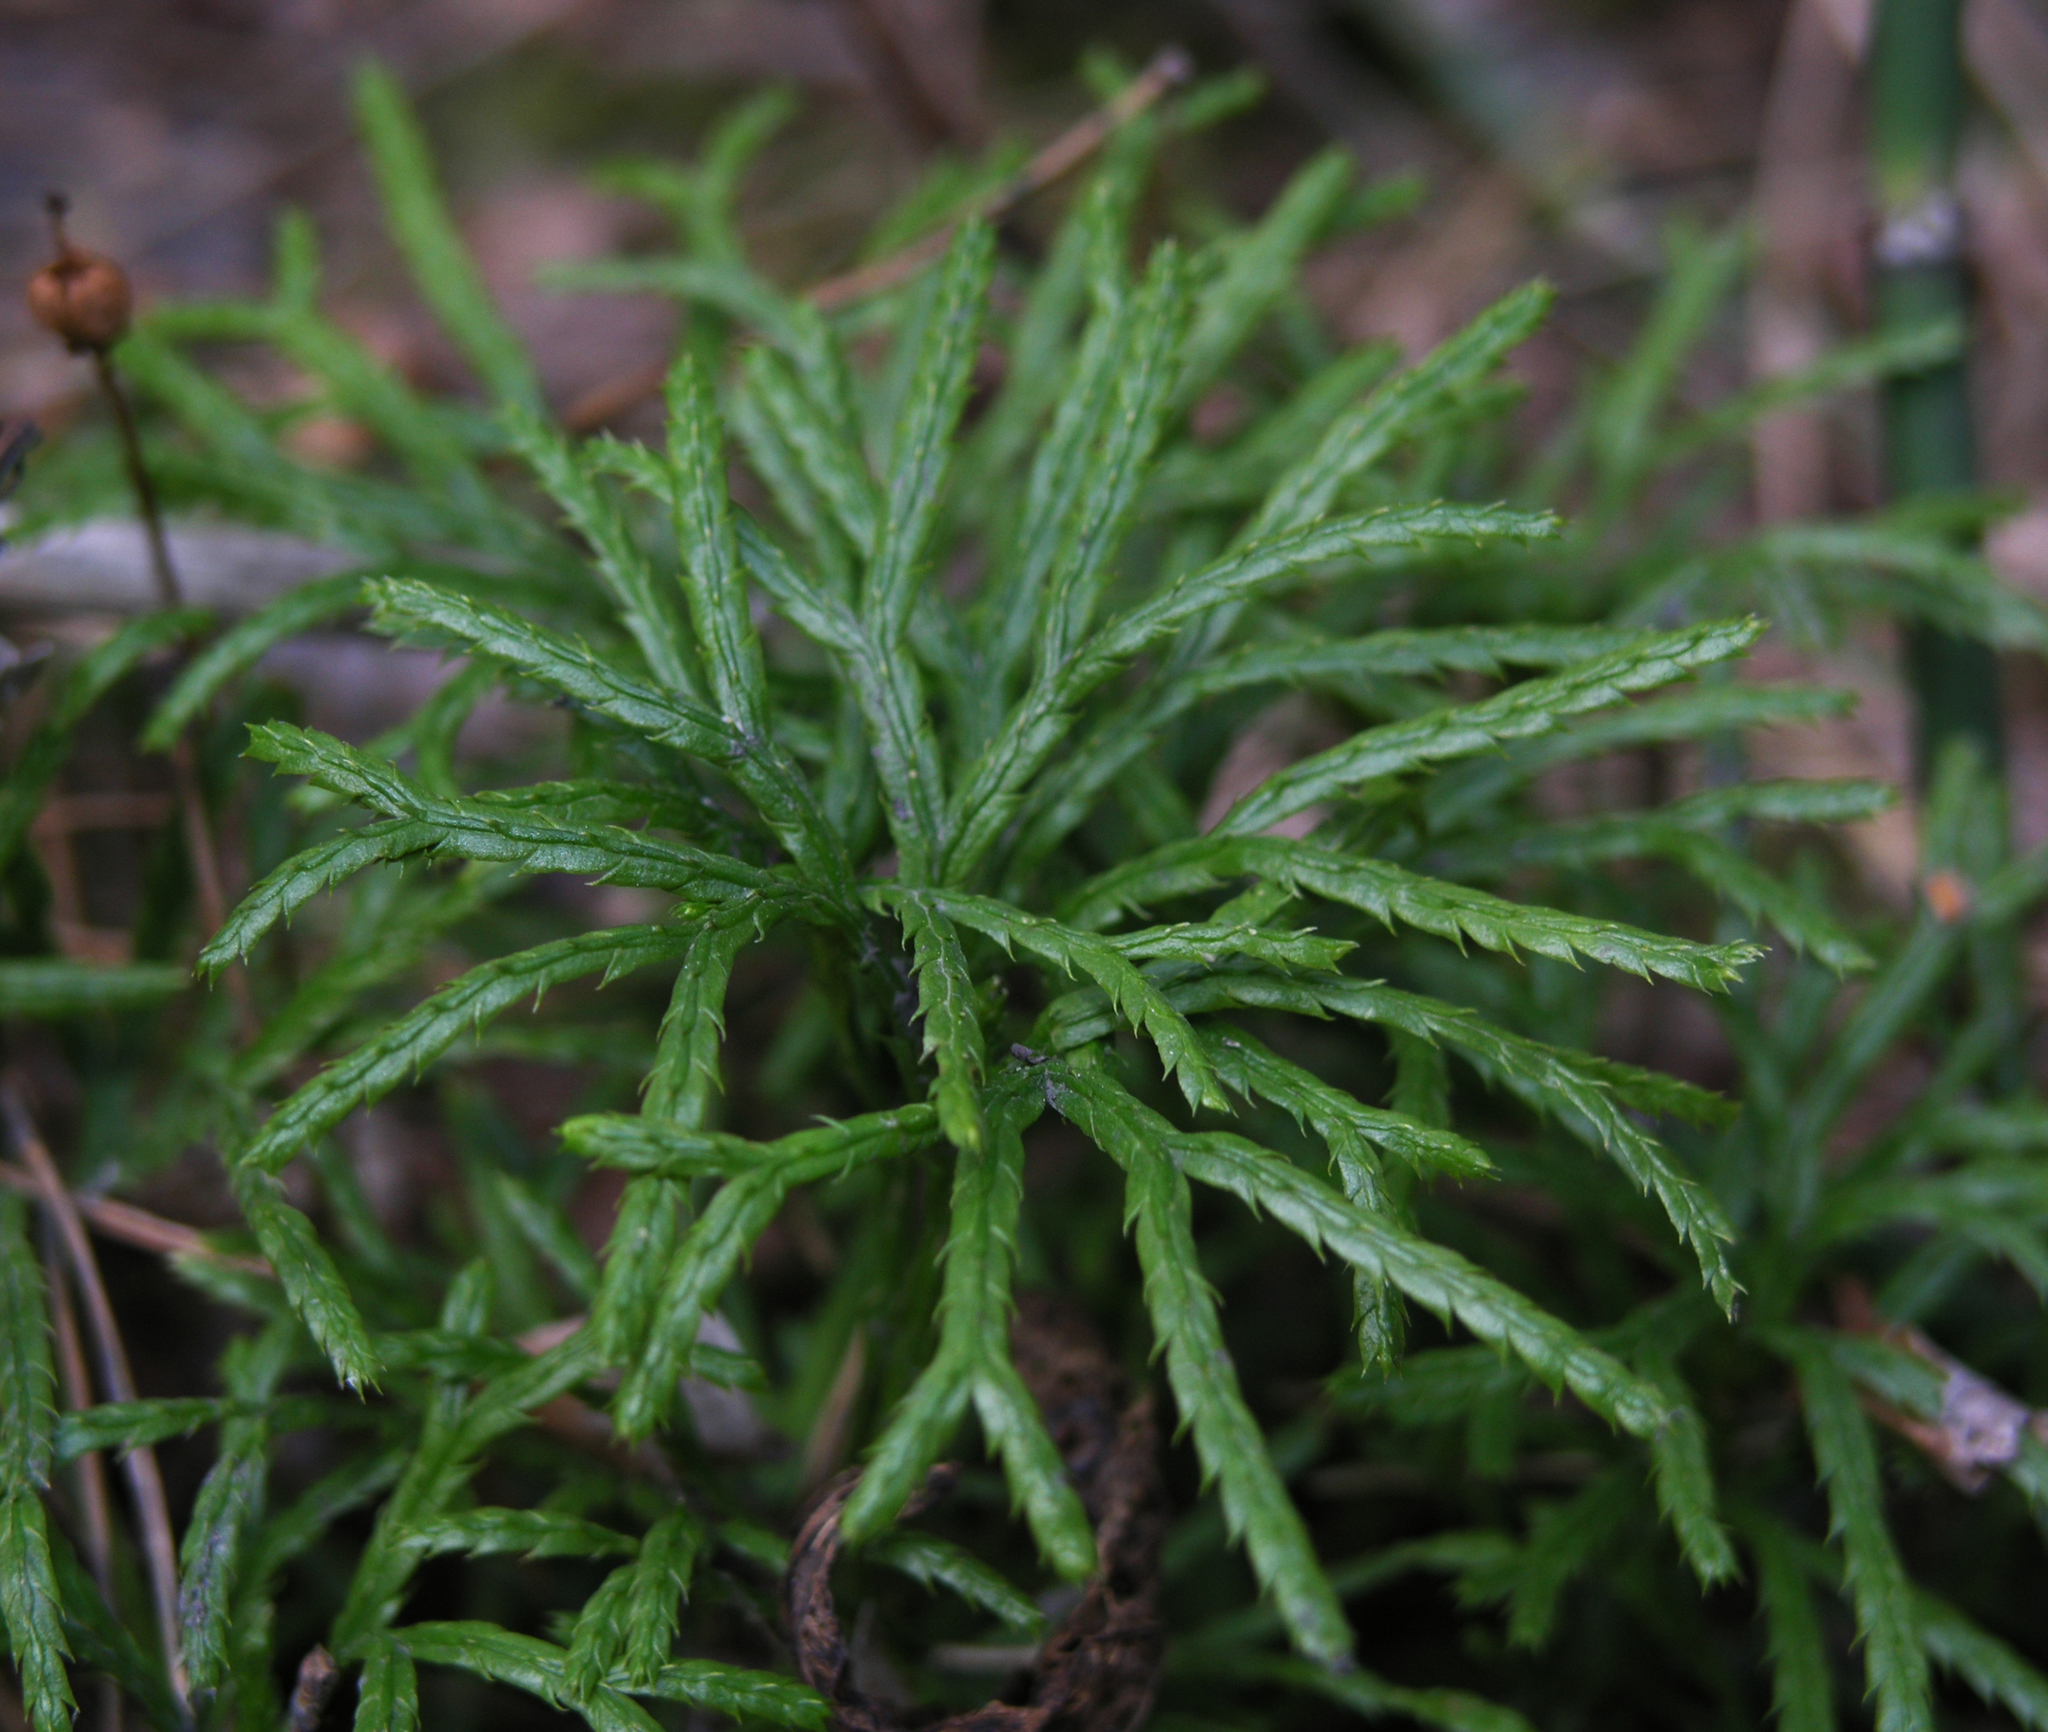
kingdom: Plantae
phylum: Tracheophyta
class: Lycopodiopsida
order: Lycopodiales
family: Lycopodiaceae
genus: Diphasiastrum
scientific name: Diphasiastrum complanatum
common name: Northern running-pine
